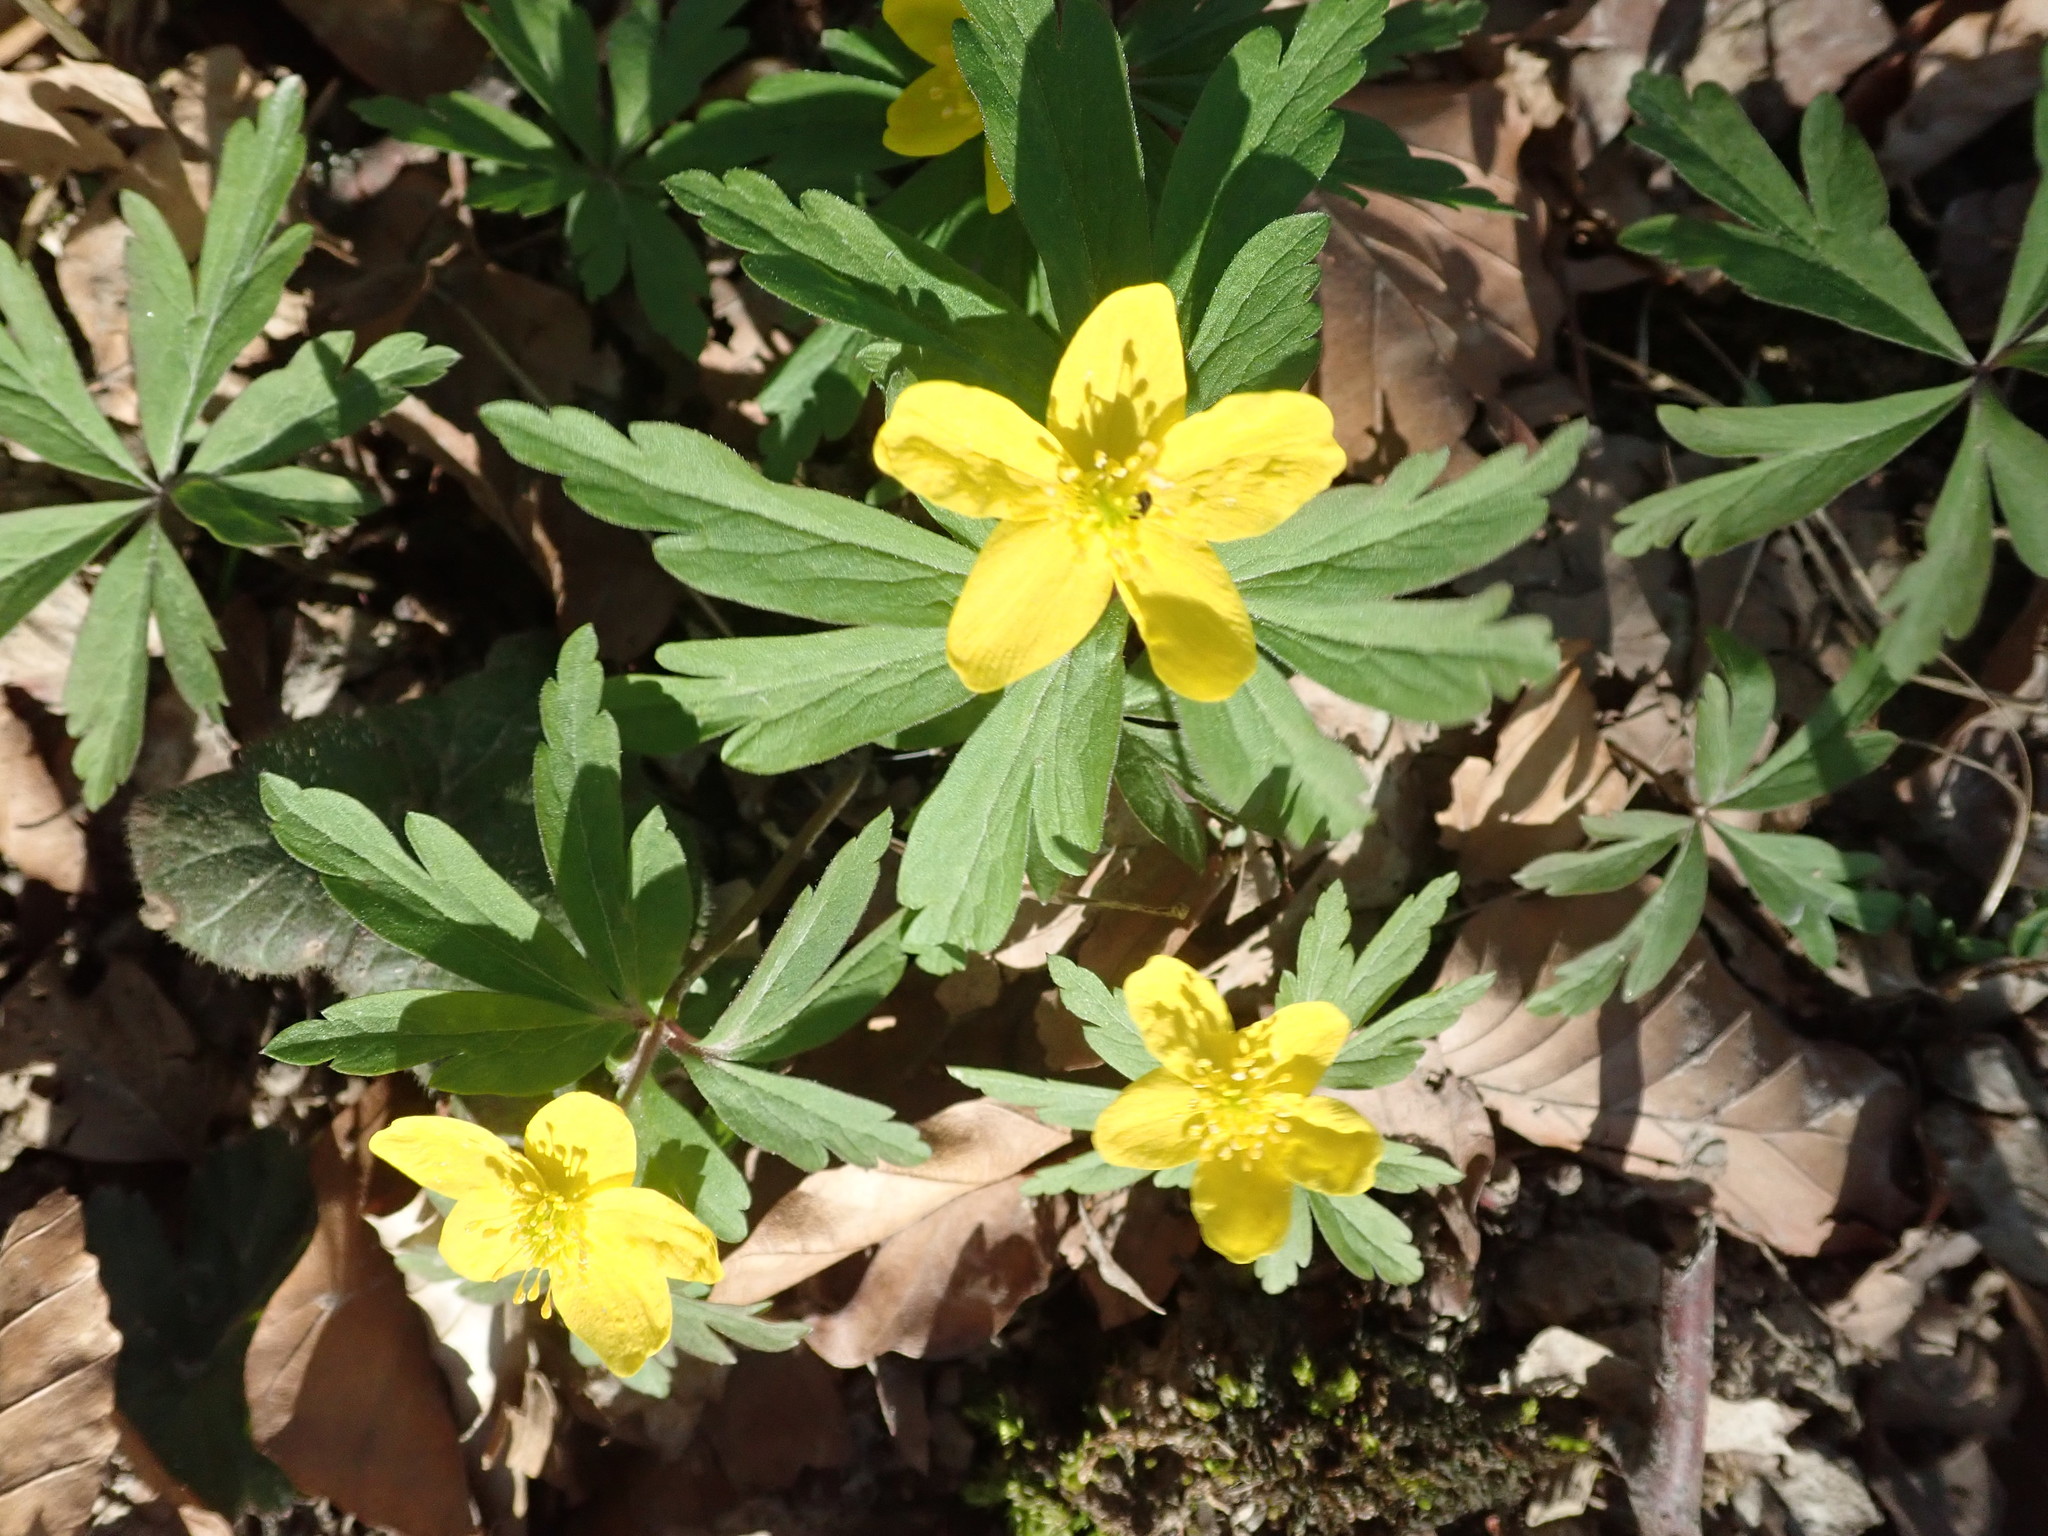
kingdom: Plantae
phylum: Tracheophyta
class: Magnoliopsida
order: Ranunculales
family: Ranunculaceae
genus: Anemone
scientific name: Anemone ranunculoides
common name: Yellow anemone
